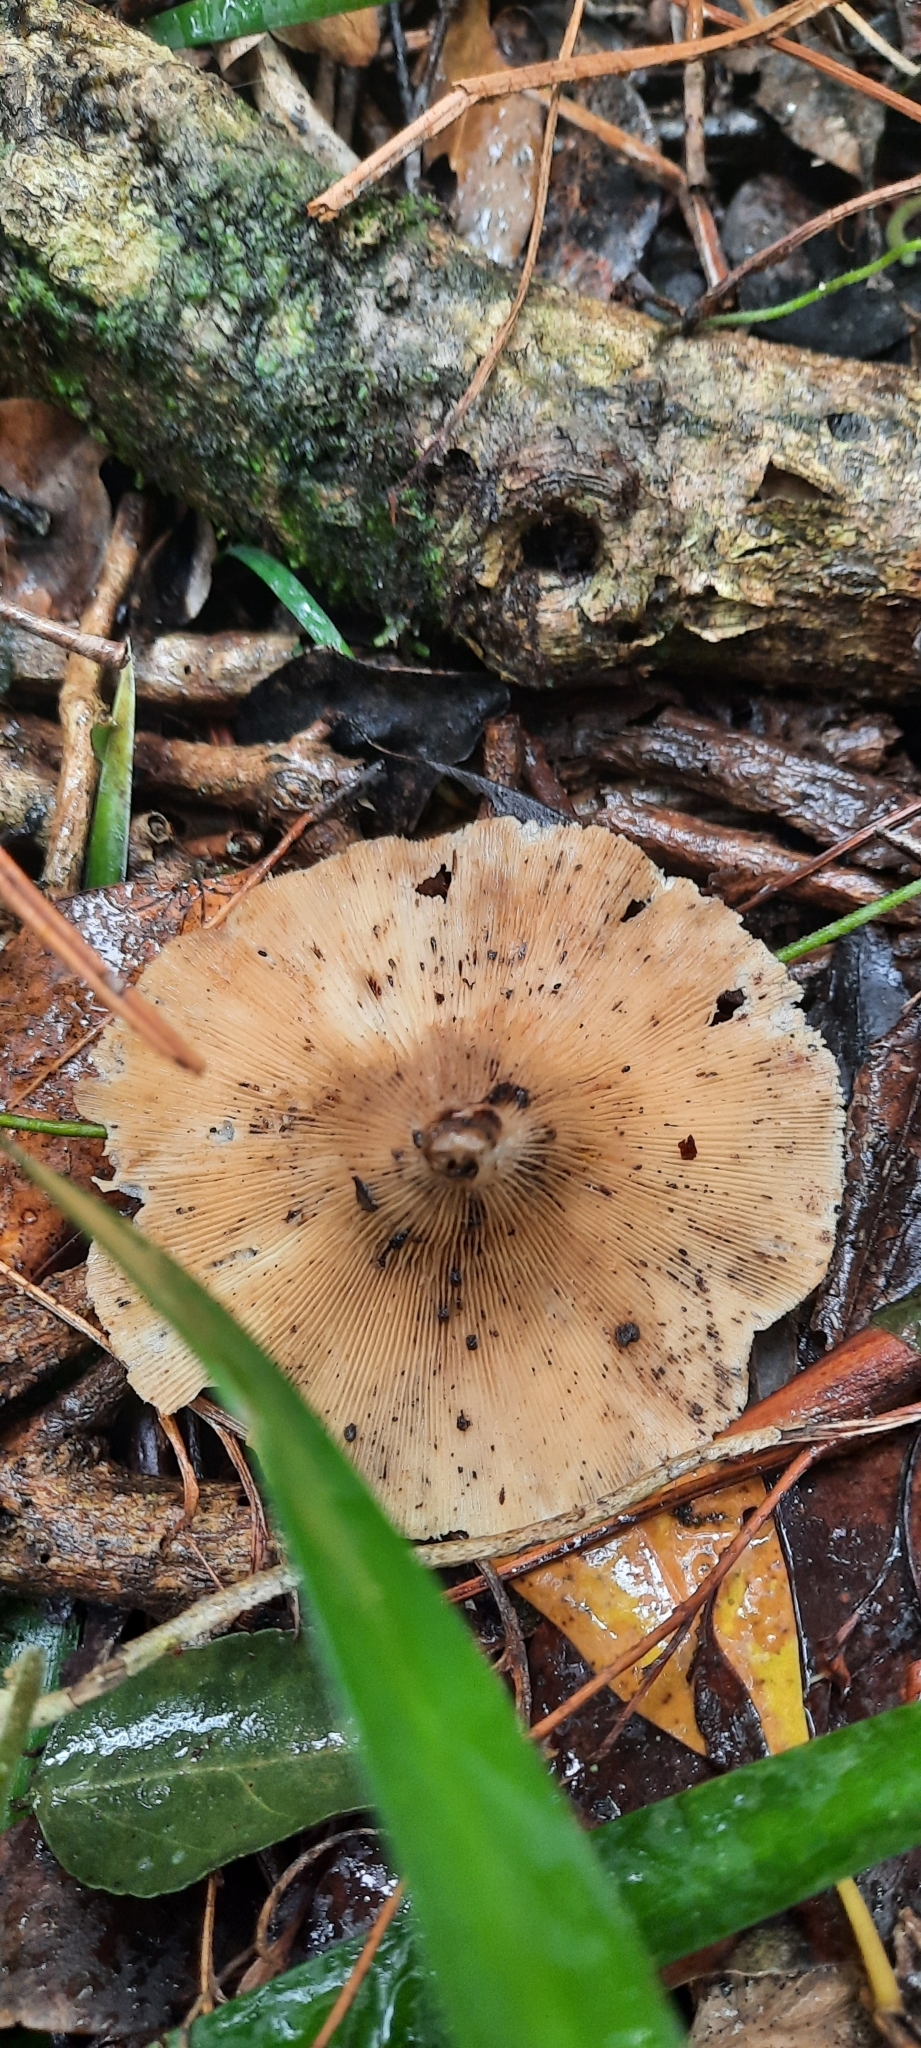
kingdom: Fungi
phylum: Basidiomycota
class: Agaricomycetes
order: Polyporales
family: Polyporaceae
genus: Lentinus
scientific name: Lentinus sajor-caju
